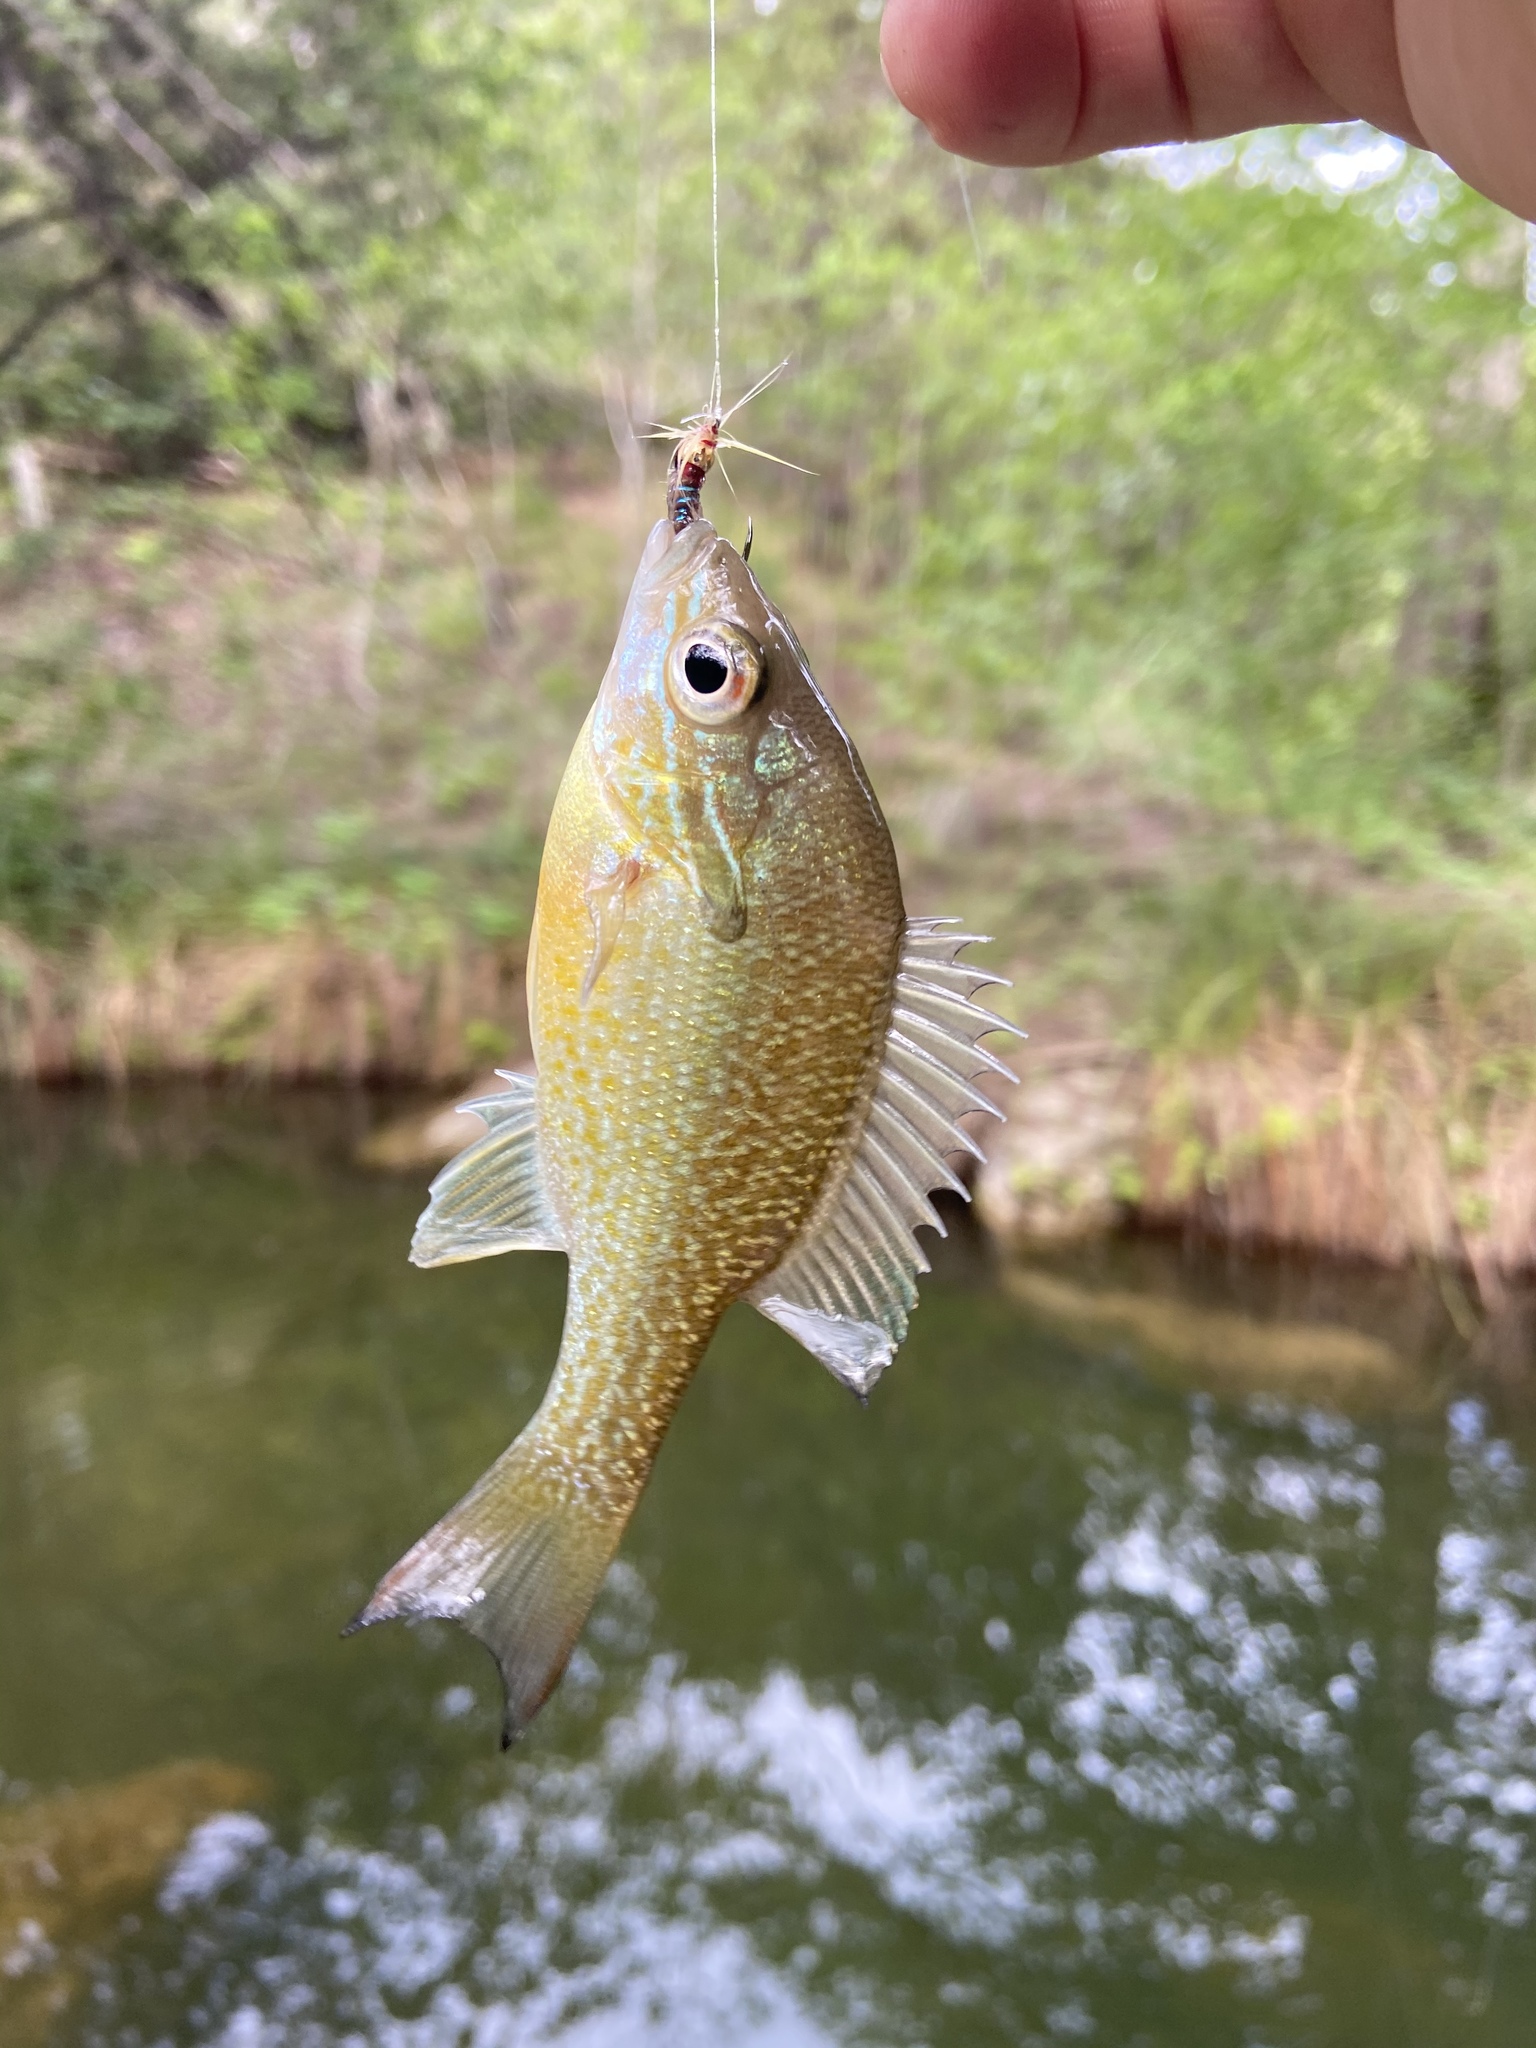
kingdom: Animalia
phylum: Chordata
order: Perciformes
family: Centrarchidae
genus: Lepomis
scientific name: Lepomis auritus
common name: Redbreast sunfish
